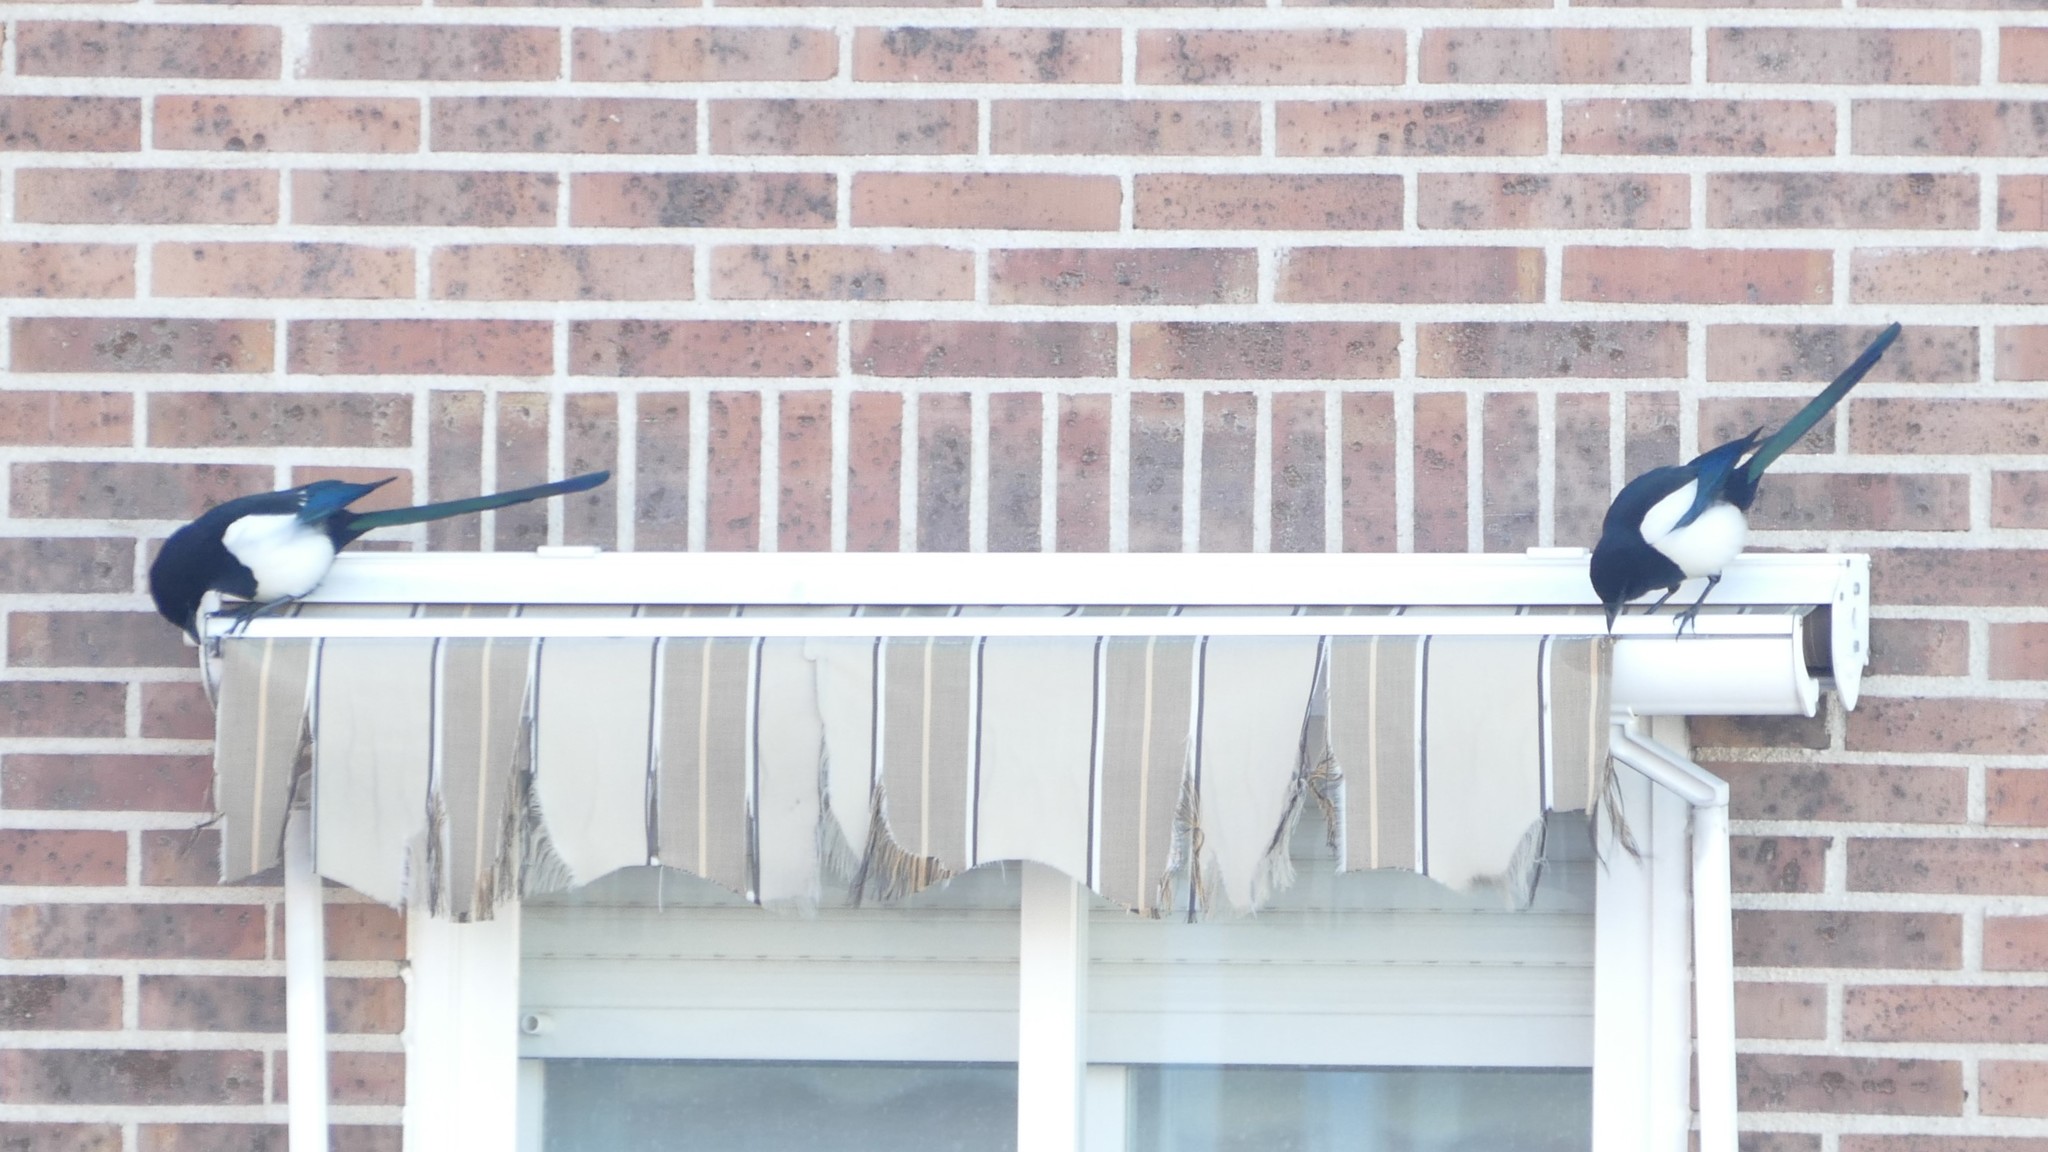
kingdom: Animalia
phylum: Chordata
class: Aves
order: Passeriformes
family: Corvidae
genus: Pica
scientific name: Pica pica
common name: Eurasian magpie
